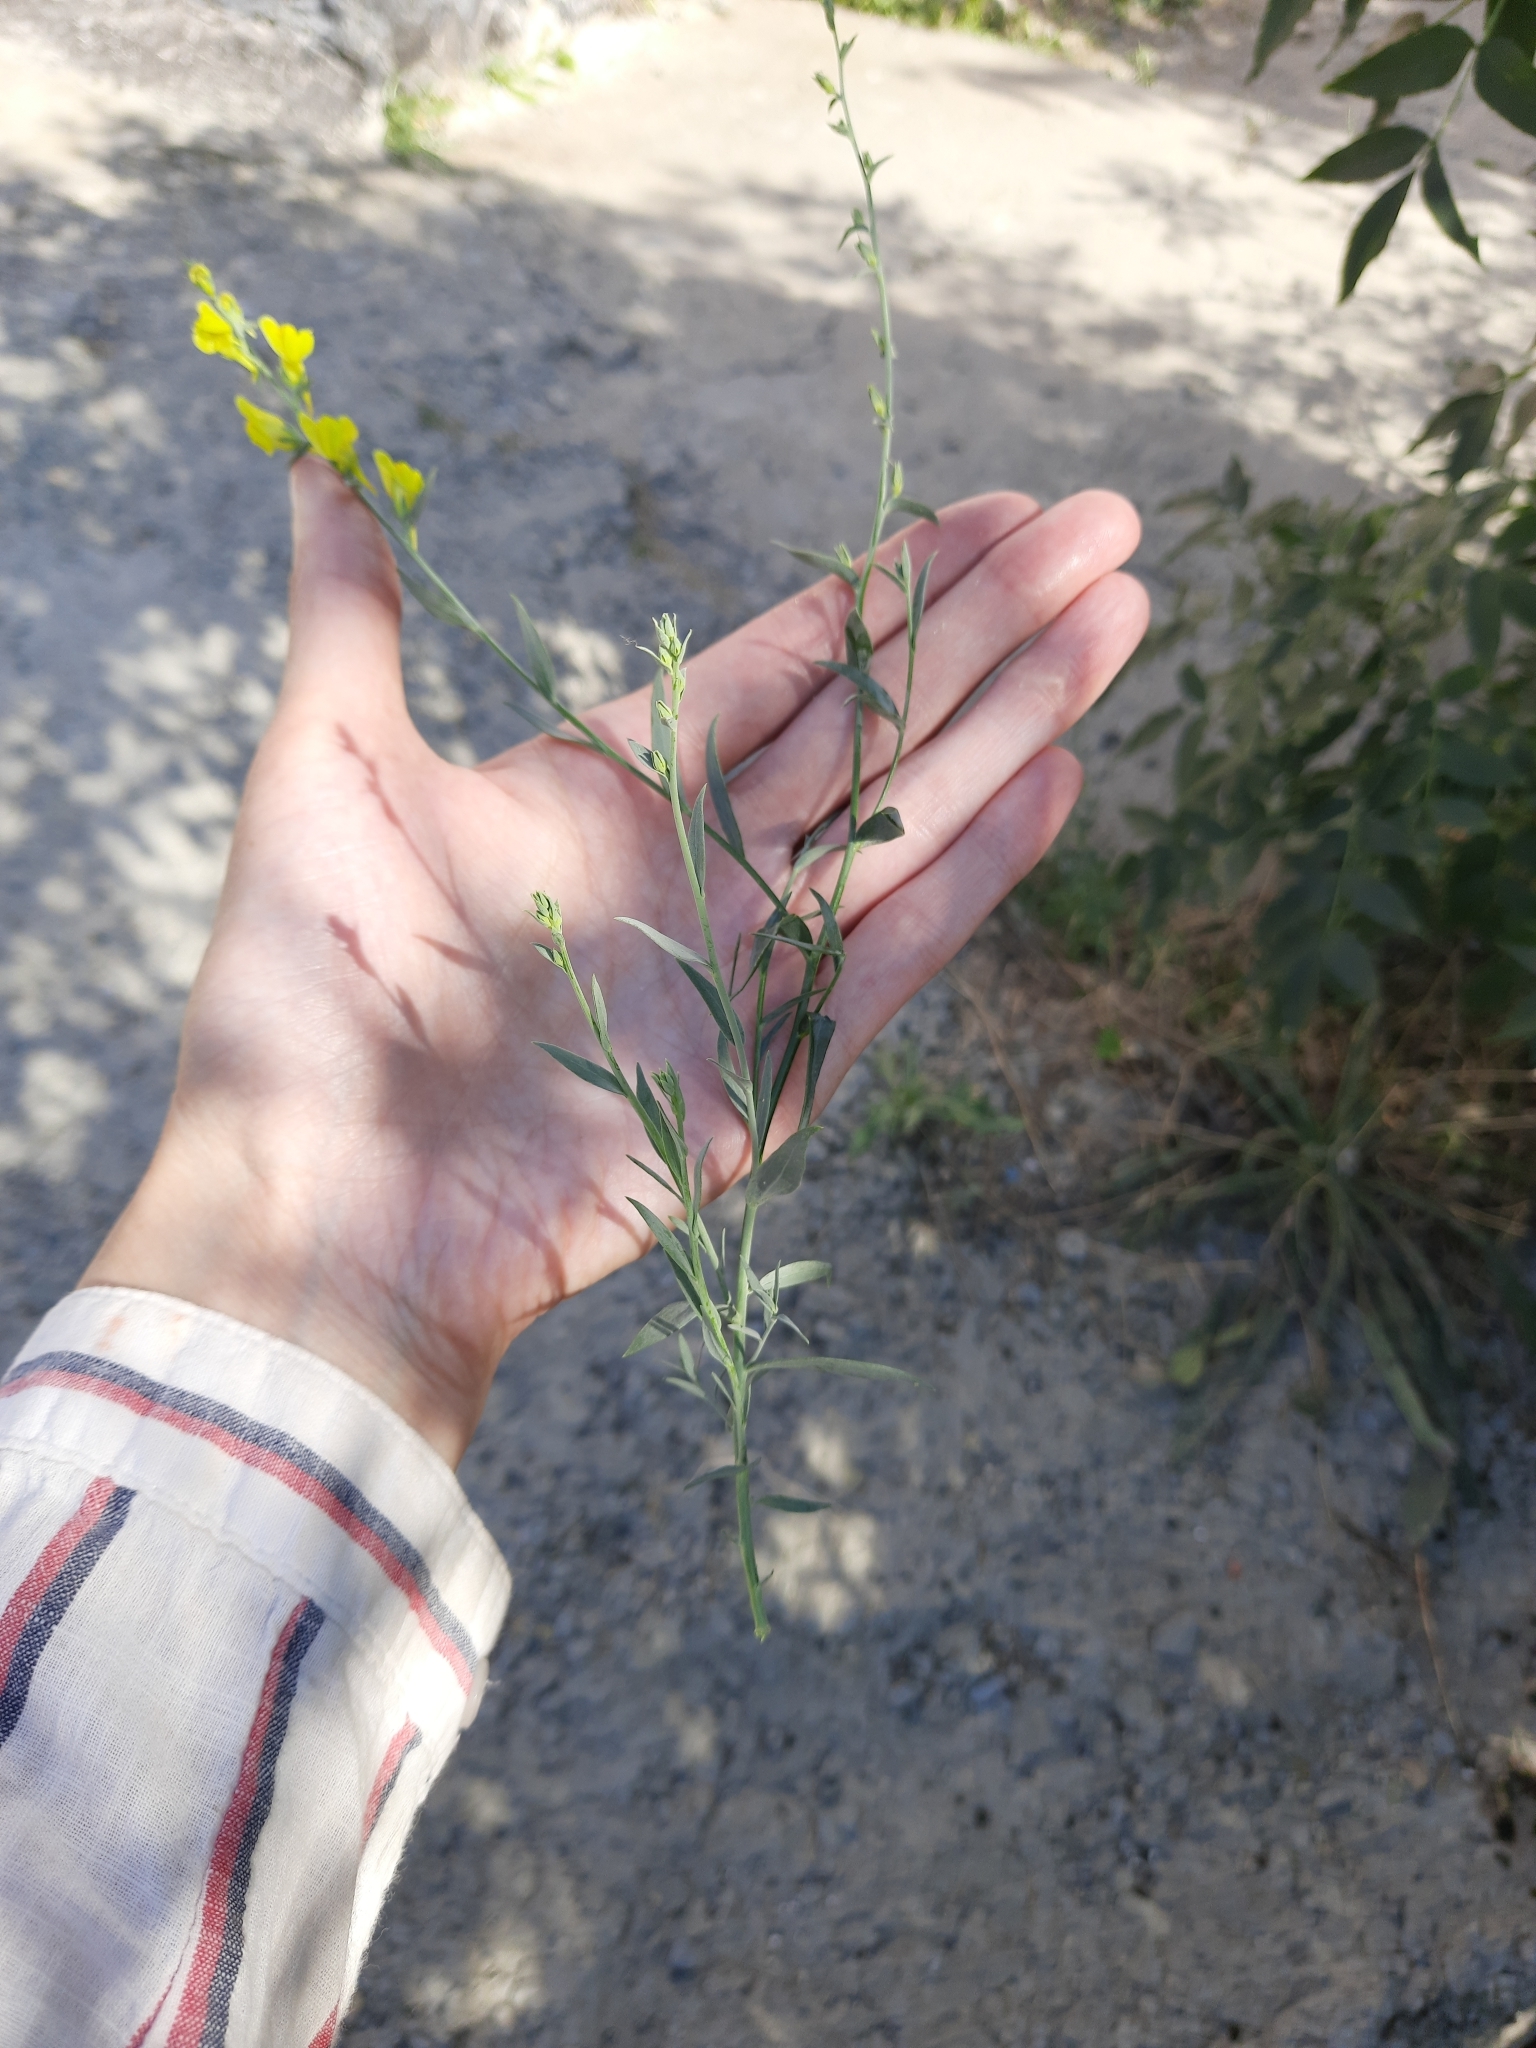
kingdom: Plantae
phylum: Tracheophyta
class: Magnoliopsida
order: Lamiales
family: Plantaginaceae
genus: Linaria
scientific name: Linaria genistifolia
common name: Broomleaf toadflax
